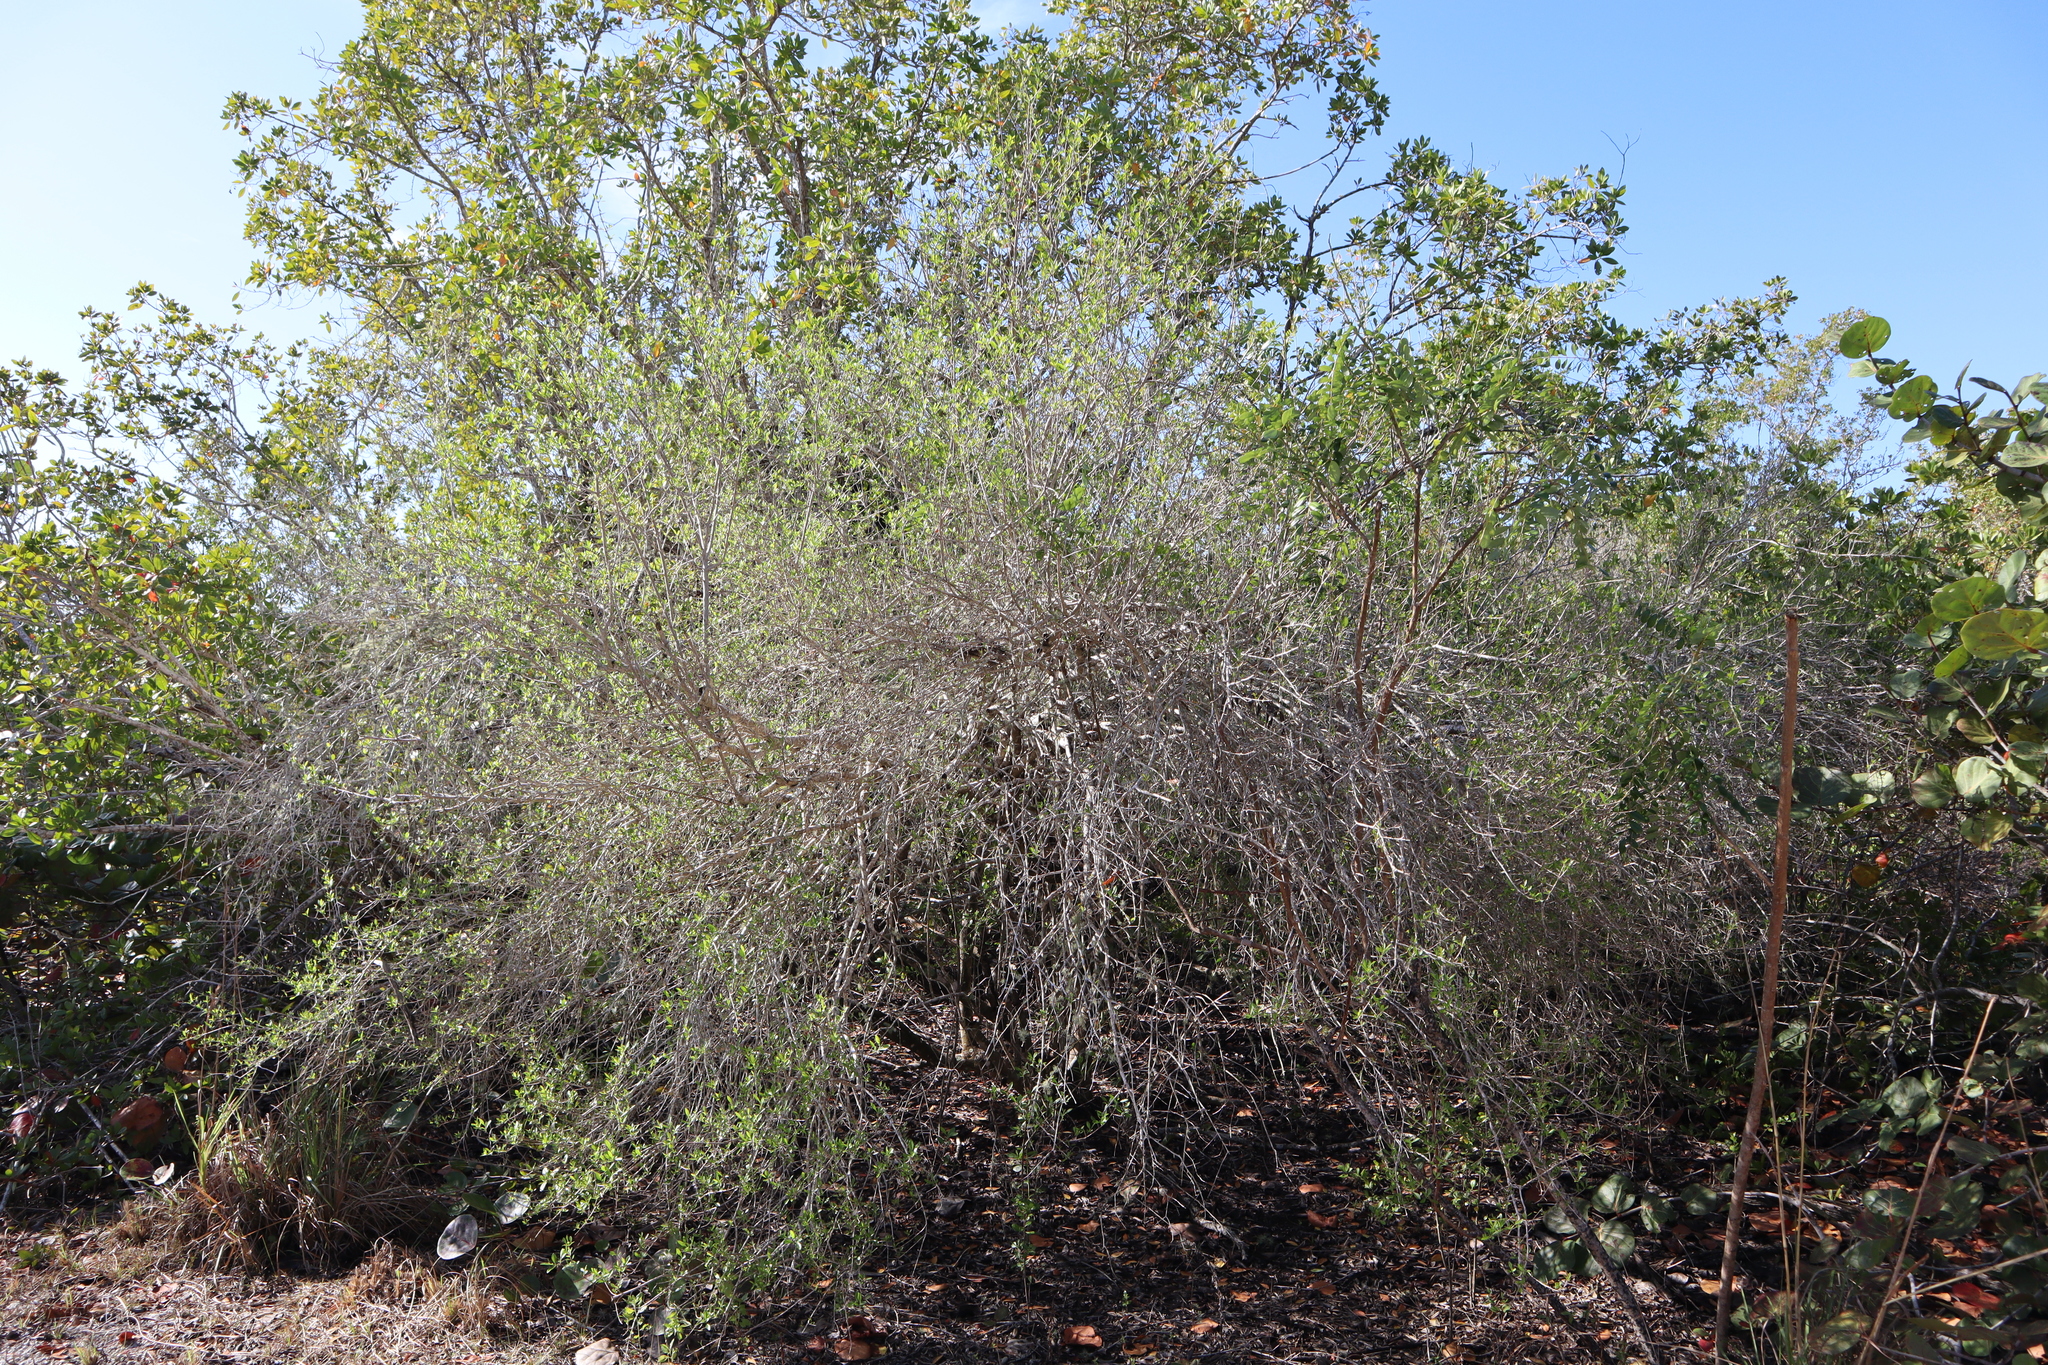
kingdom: Plantae
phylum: Tracheophyta
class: Magnoliopsida
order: Lamiales
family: Oleaceae
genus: Forestiera
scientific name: Forestiera segregata
